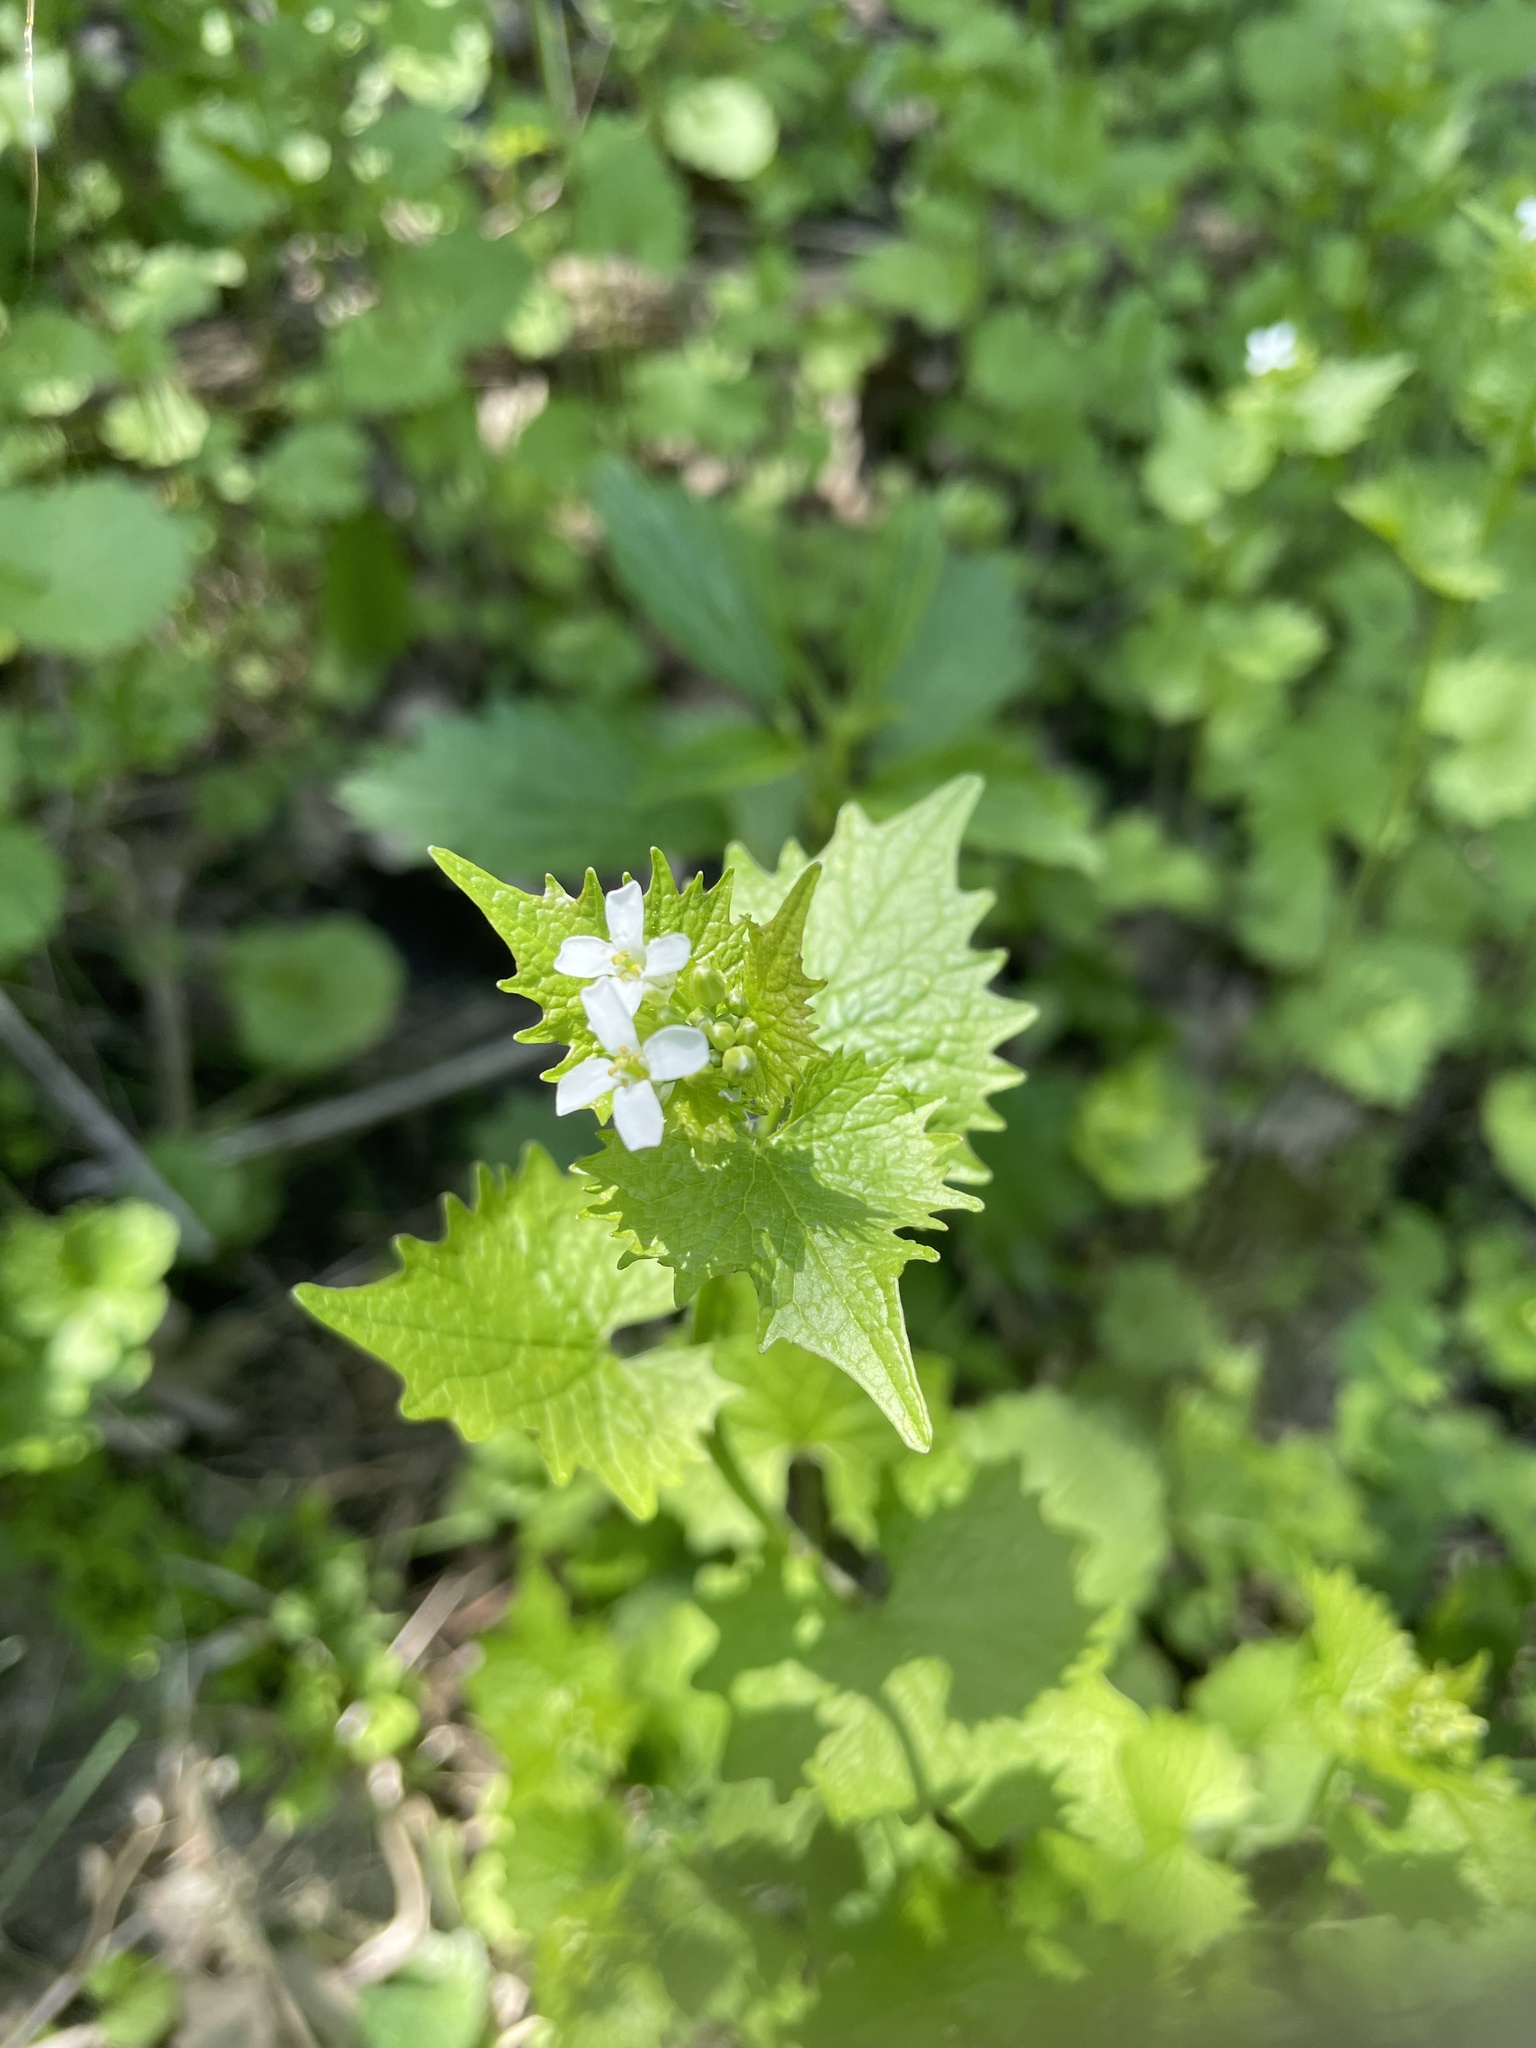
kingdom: Plantae
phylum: Tracheophyta
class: Magnoliopsida
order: Brassicales
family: Brassicaceae
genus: Alliaria
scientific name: Alliaria petiolata
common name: Garlic mustard
